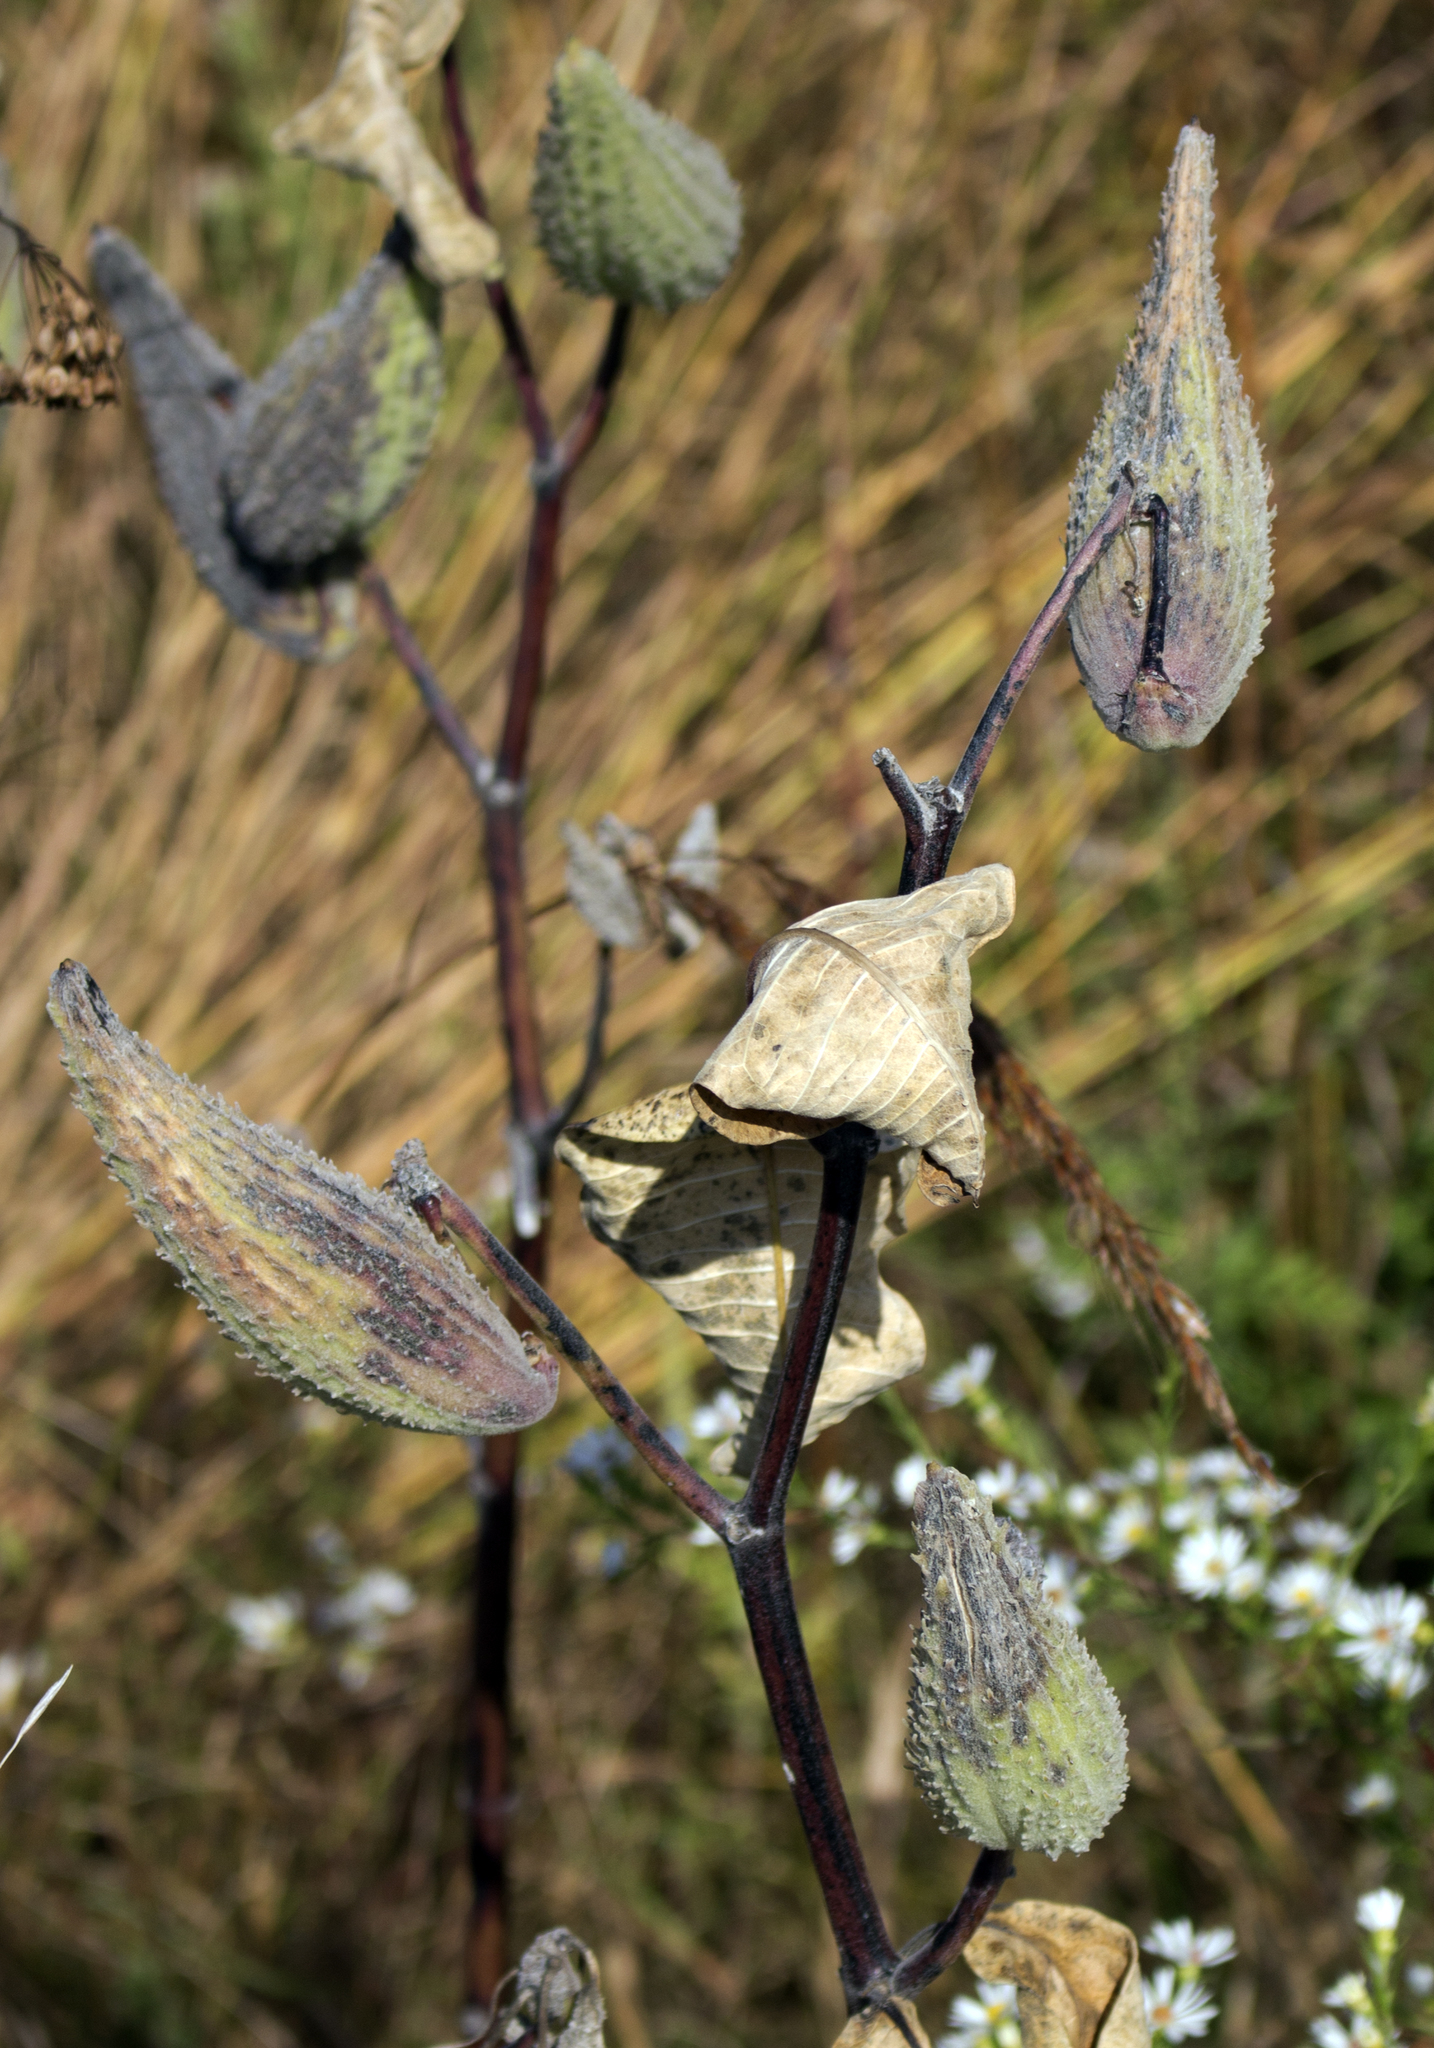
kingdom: Plantae
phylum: Tracheophyta
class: Magnoliopsida
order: Gentianales
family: Apocynaceae
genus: Asclepias
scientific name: Asclepias syriaca
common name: Common milkweed
